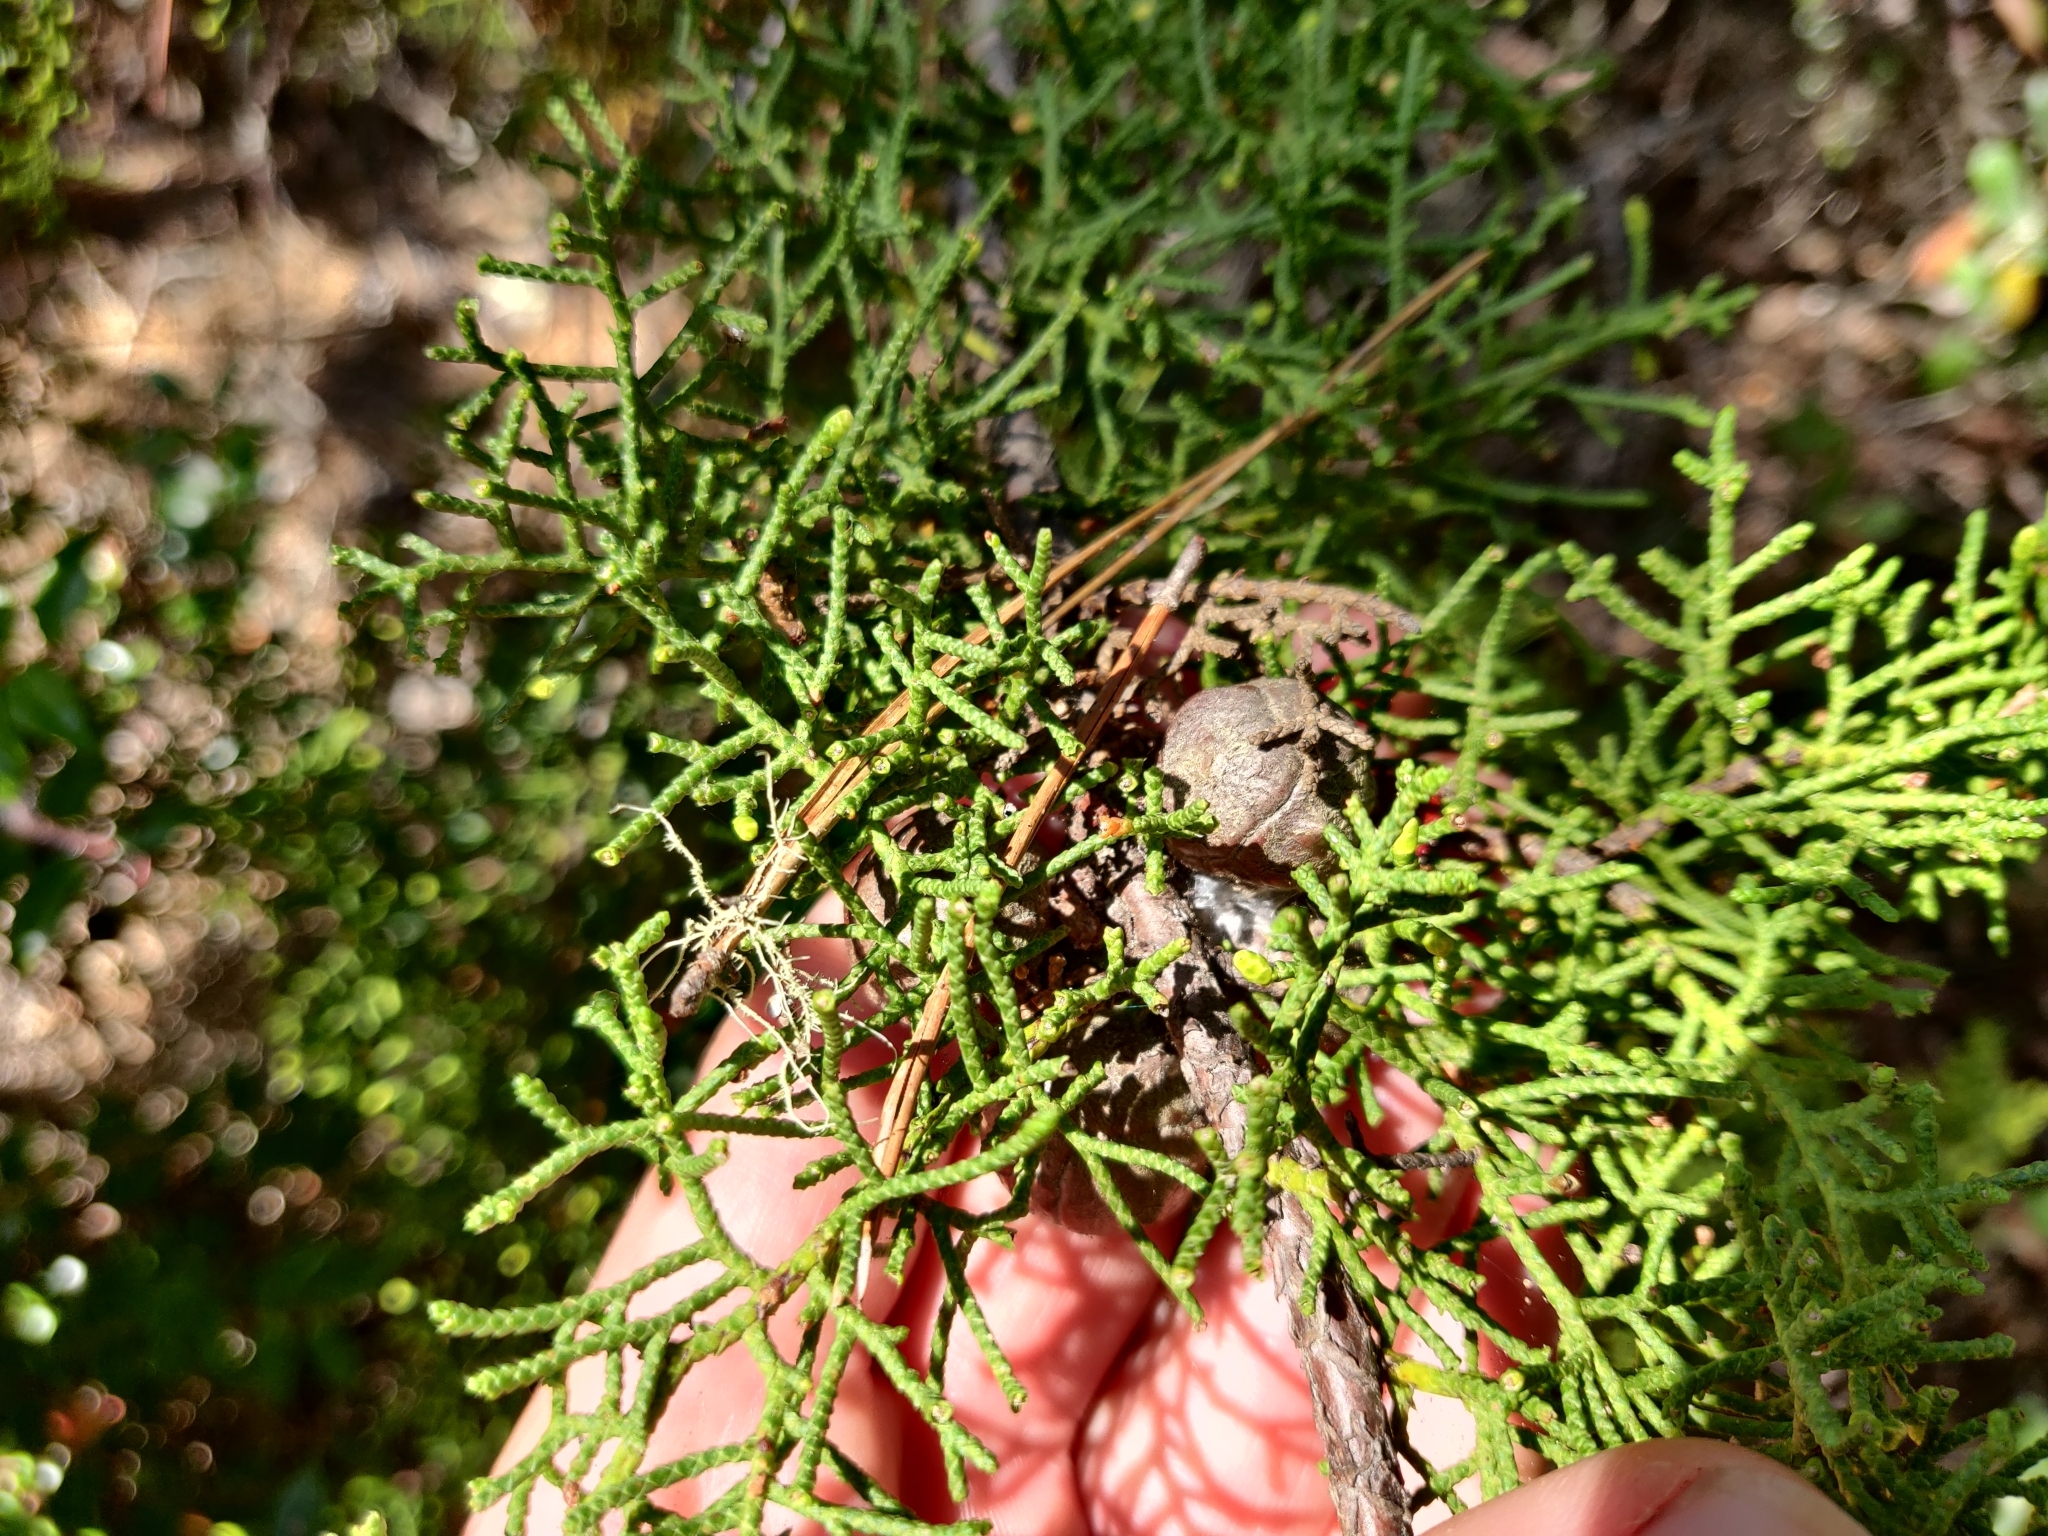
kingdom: Plantae
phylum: Tracheophyta
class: Pinopsida
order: Pinales
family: Cupressaceae
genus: Cupressus
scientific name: Cupressus goveniana
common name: Gowen cypress
